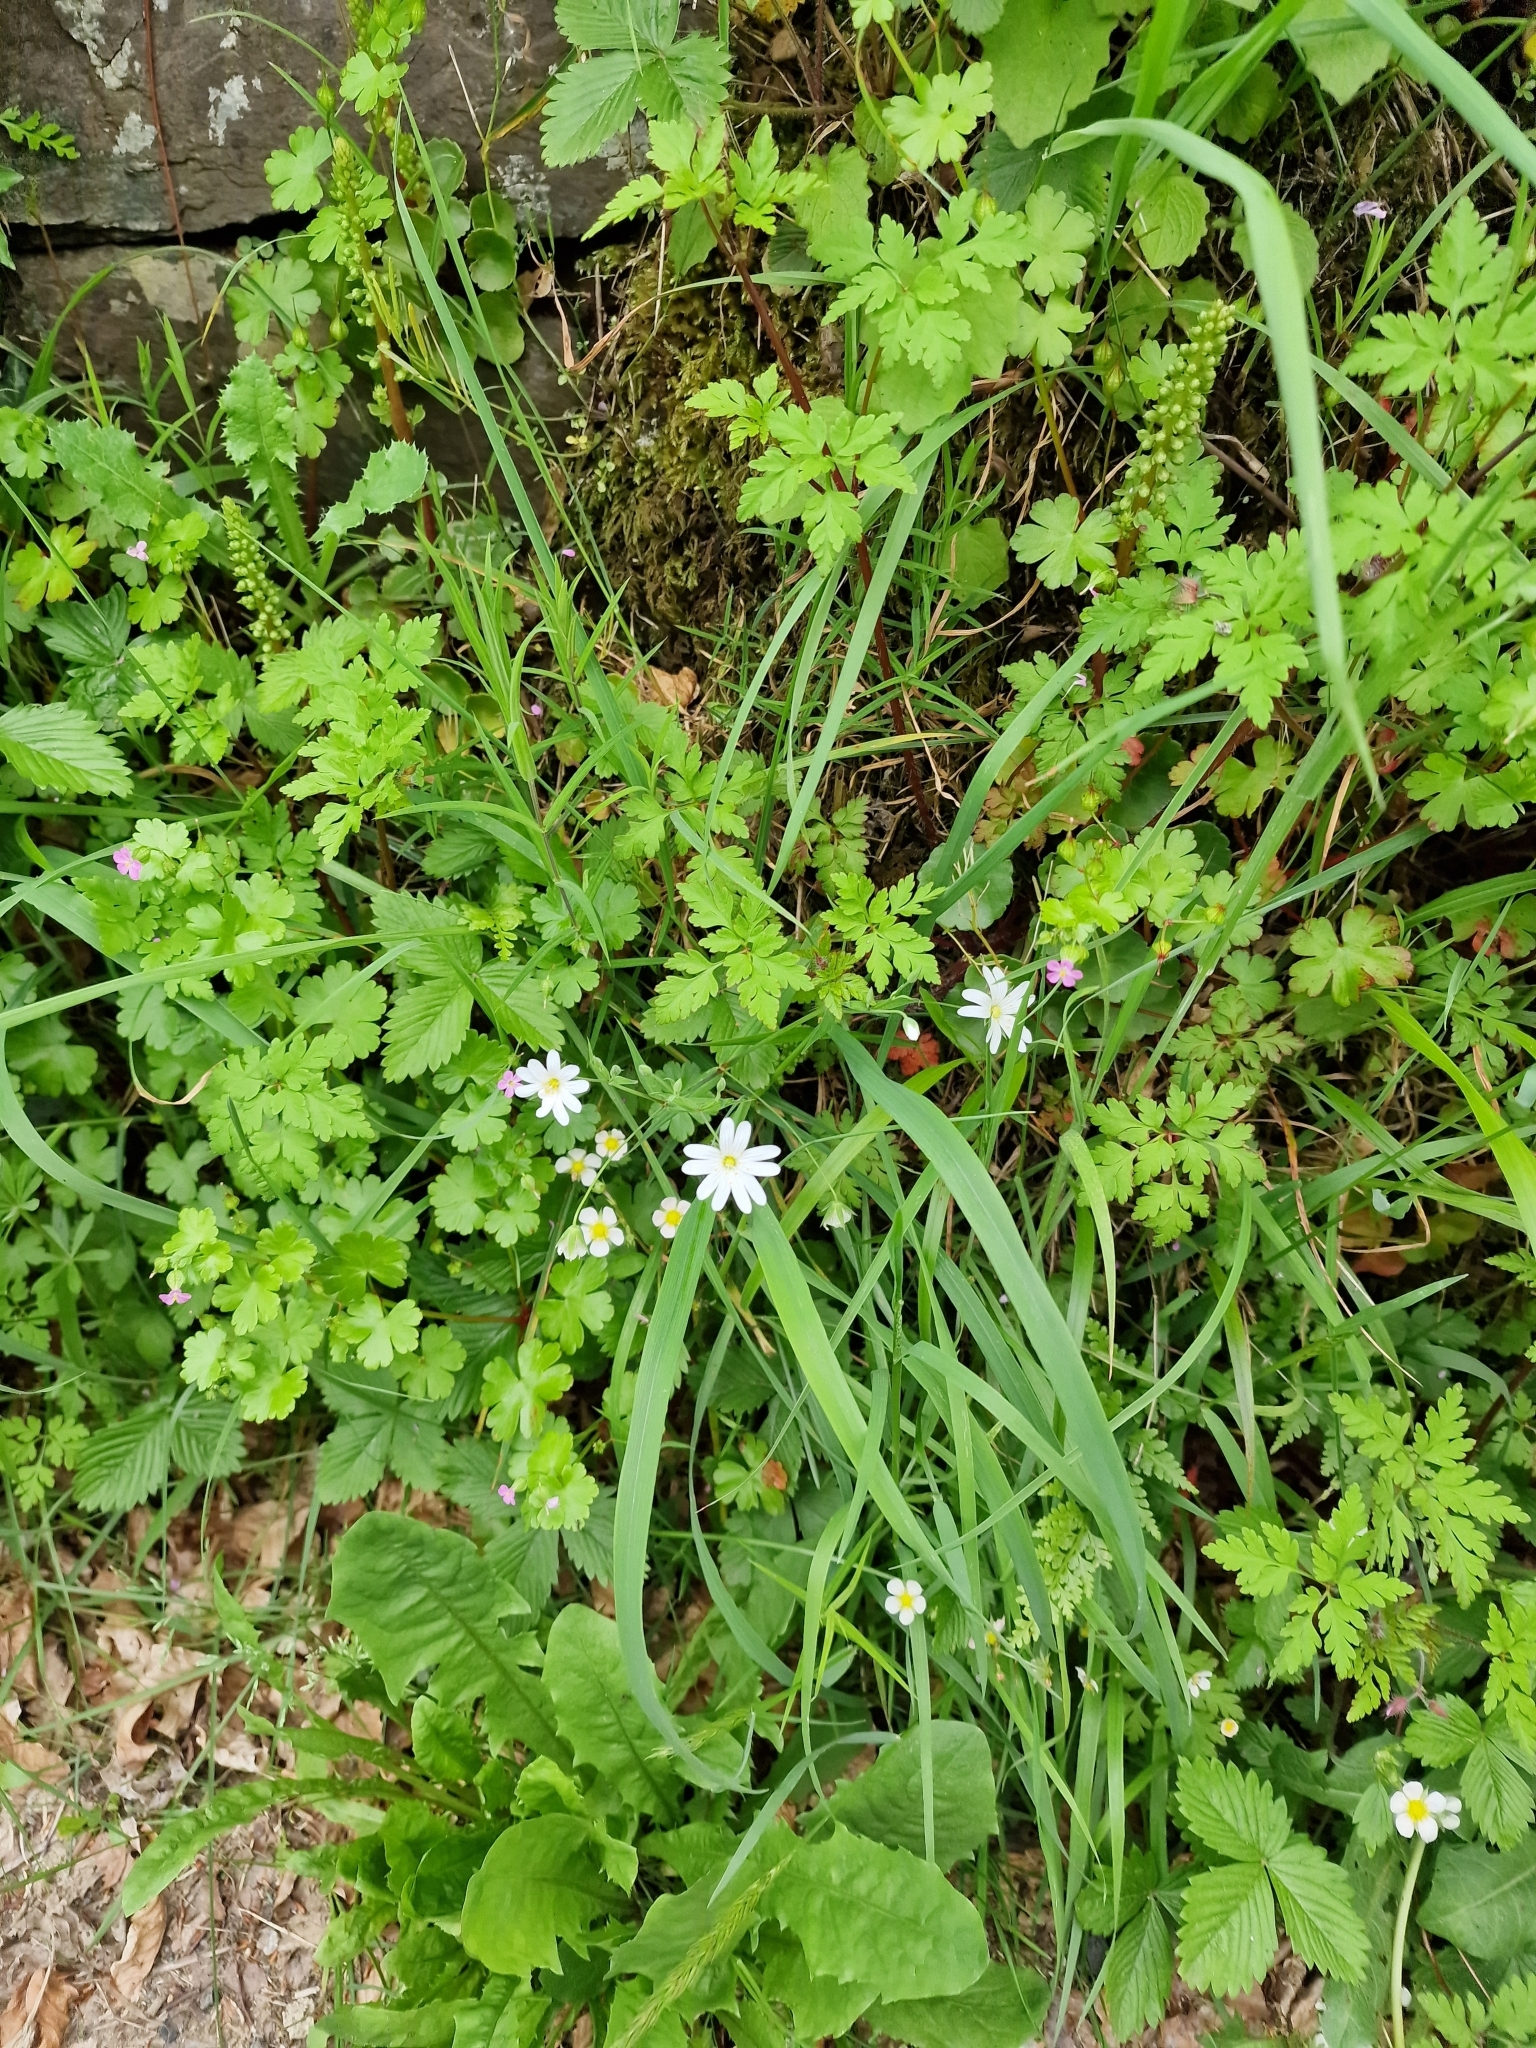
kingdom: Plantae
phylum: Tracheophyta
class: Magnoliopsida
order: Caryophyllales
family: Caryophyllaceae
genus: Rabelera
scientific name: Rabelera holostea
